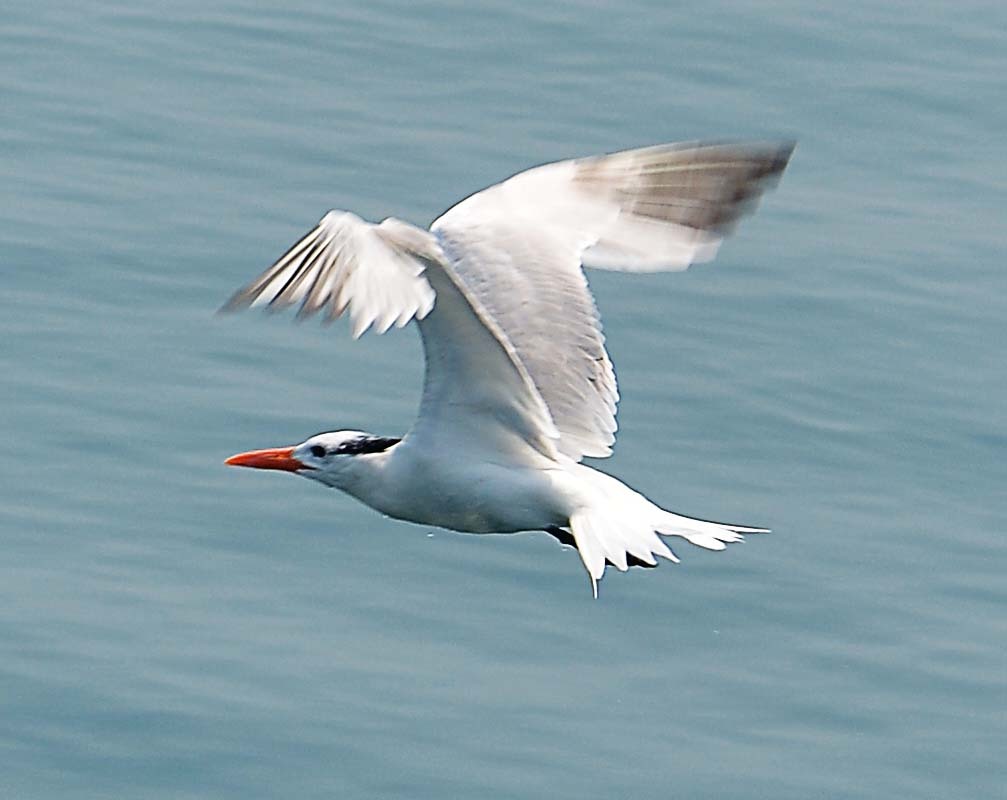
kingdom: Animalia
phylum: Chordata
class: Aves
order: Charadriiformes
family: Laridae
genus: Thalasseus
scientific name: Thalasseus maximus
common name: Royal tern
